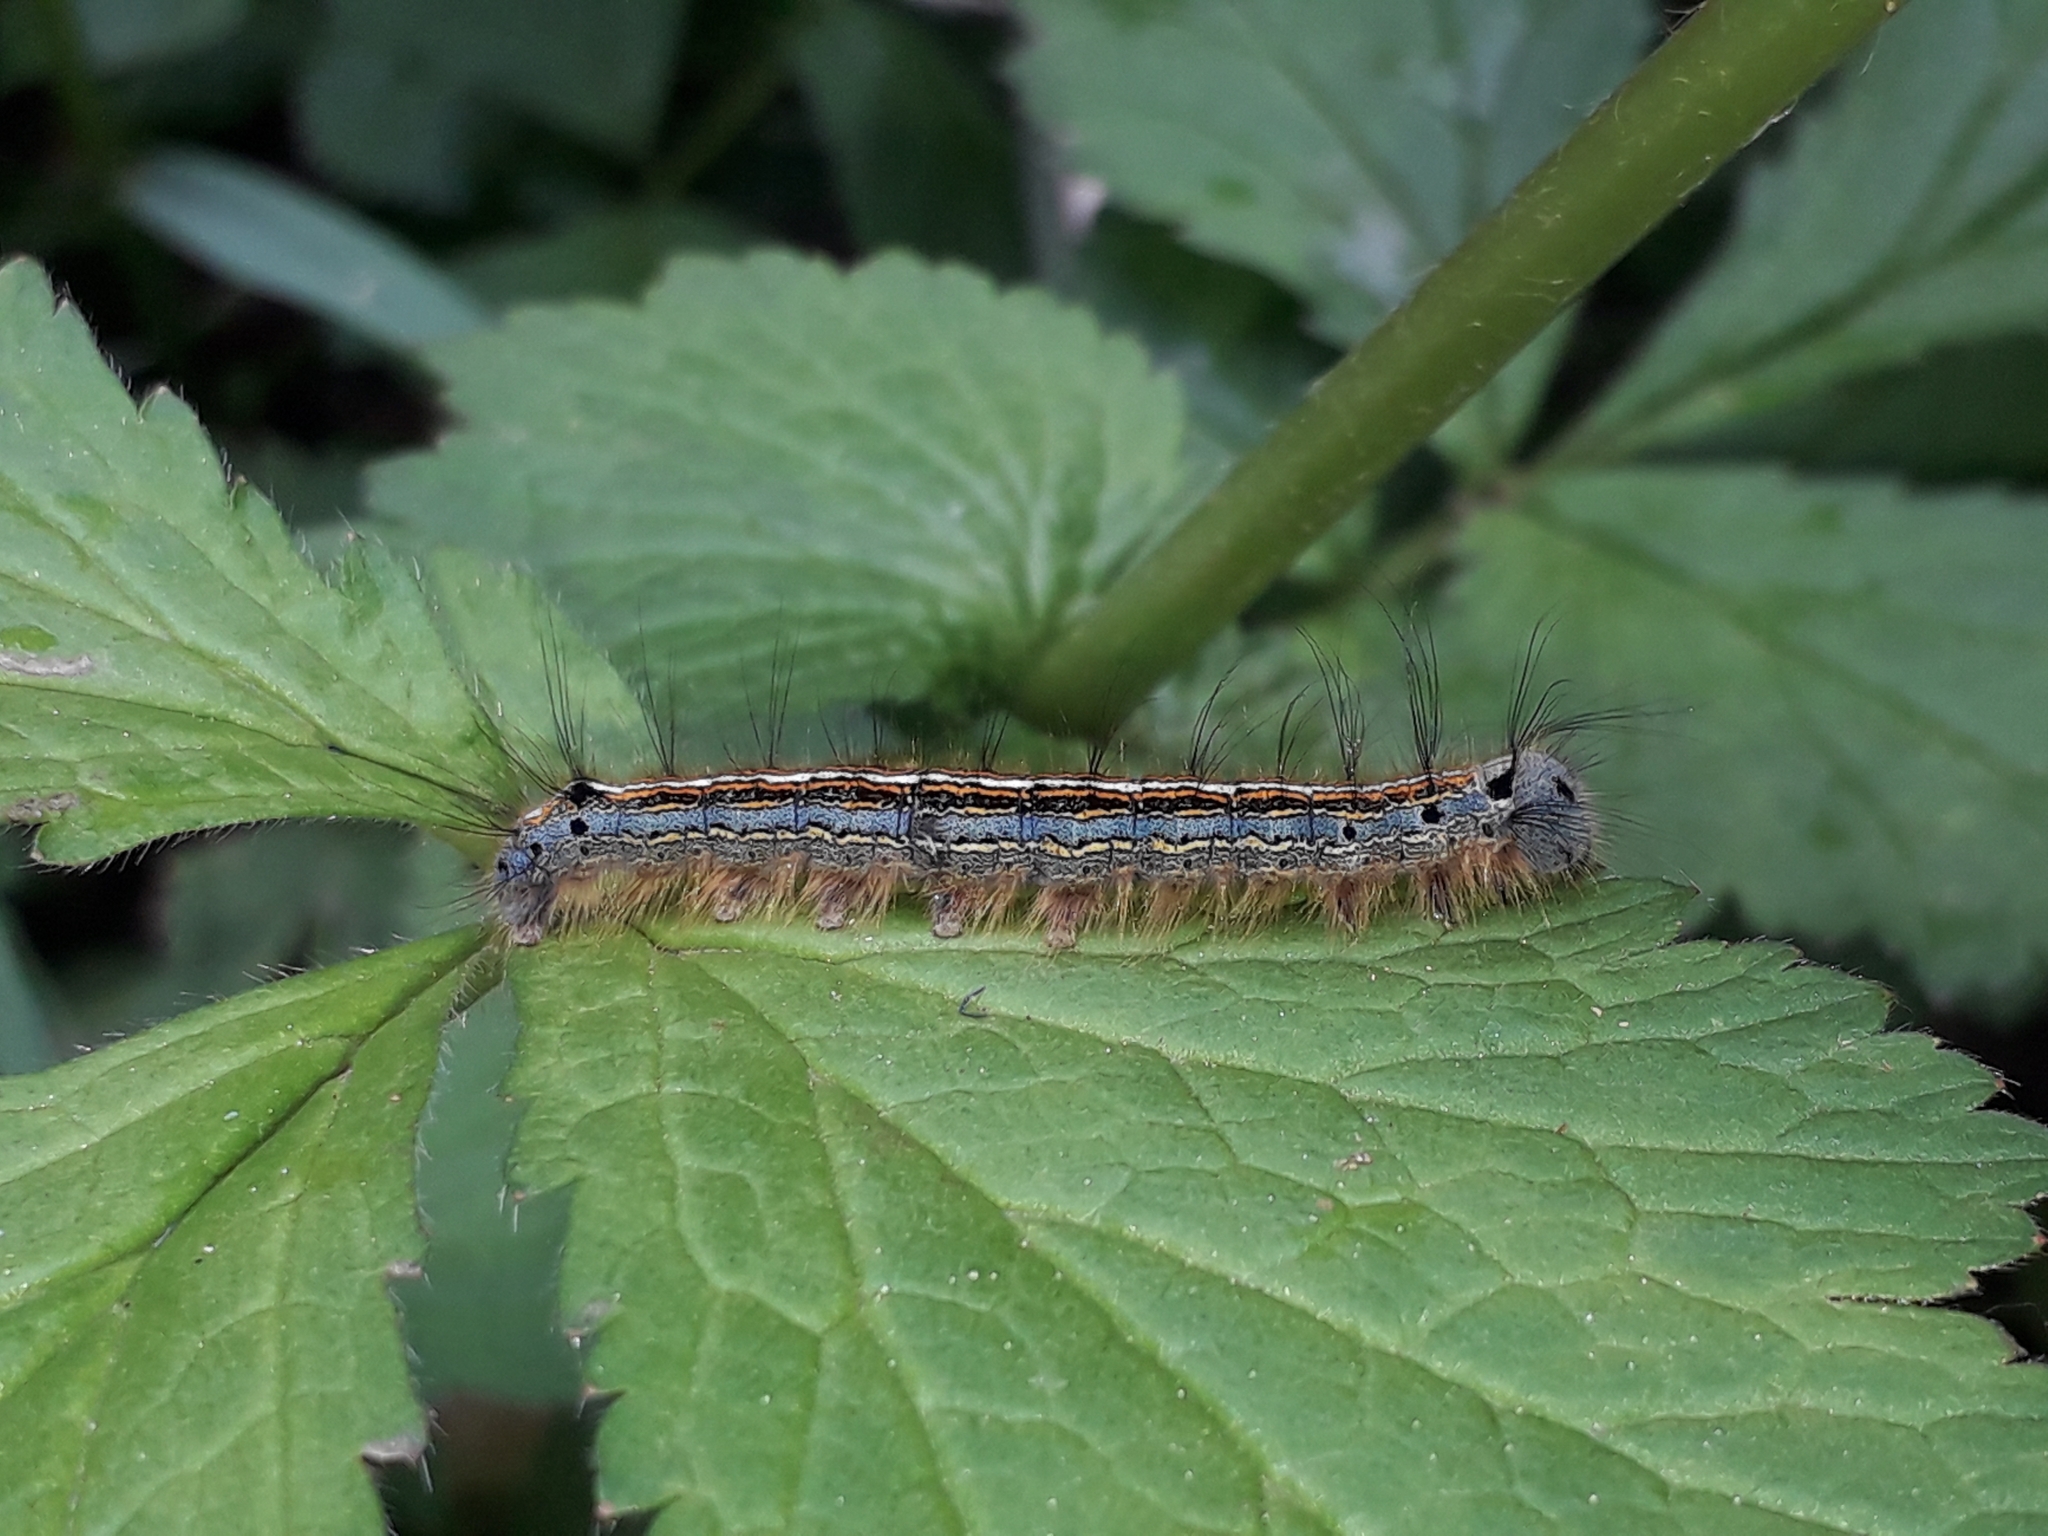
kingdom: Animalia
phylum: Arthropoda
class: Insecta
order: Lepidoptera
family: Lasiocampidae
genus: Malacosoma
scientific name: Malacosoma neustria
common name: The lackey
